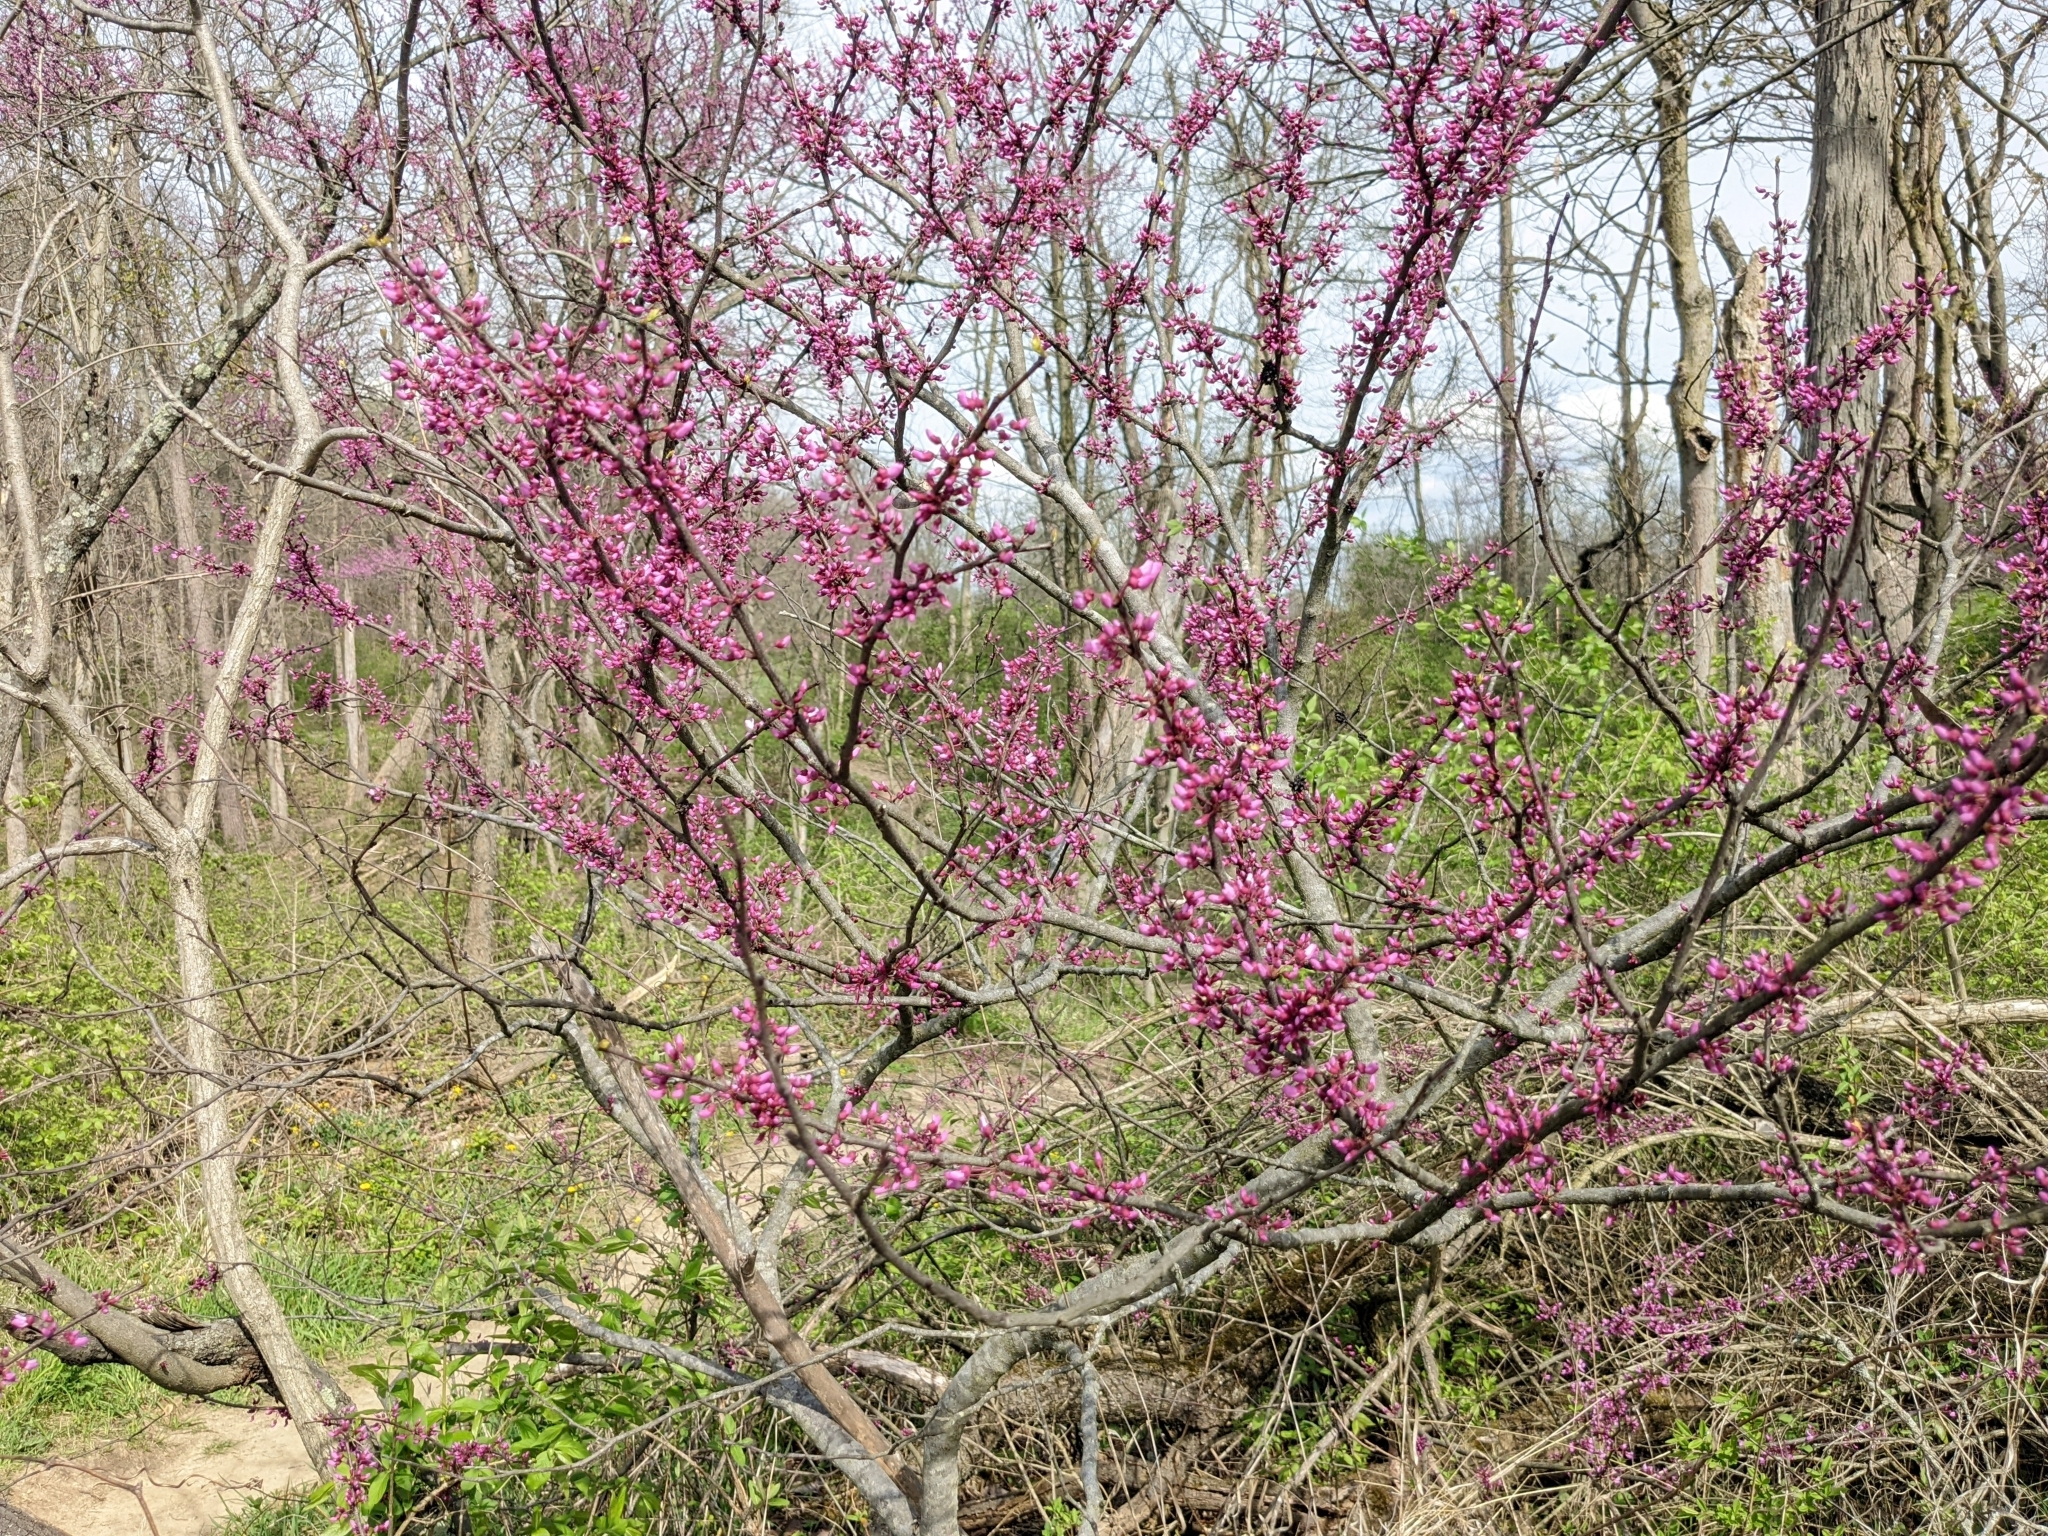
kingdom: Plantae
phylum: Tracheophyta
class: Magnoliopsida
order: Fabales
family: Fabaceae
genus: Cercis
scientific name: Cercis canadensis
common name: Eastern redbud
